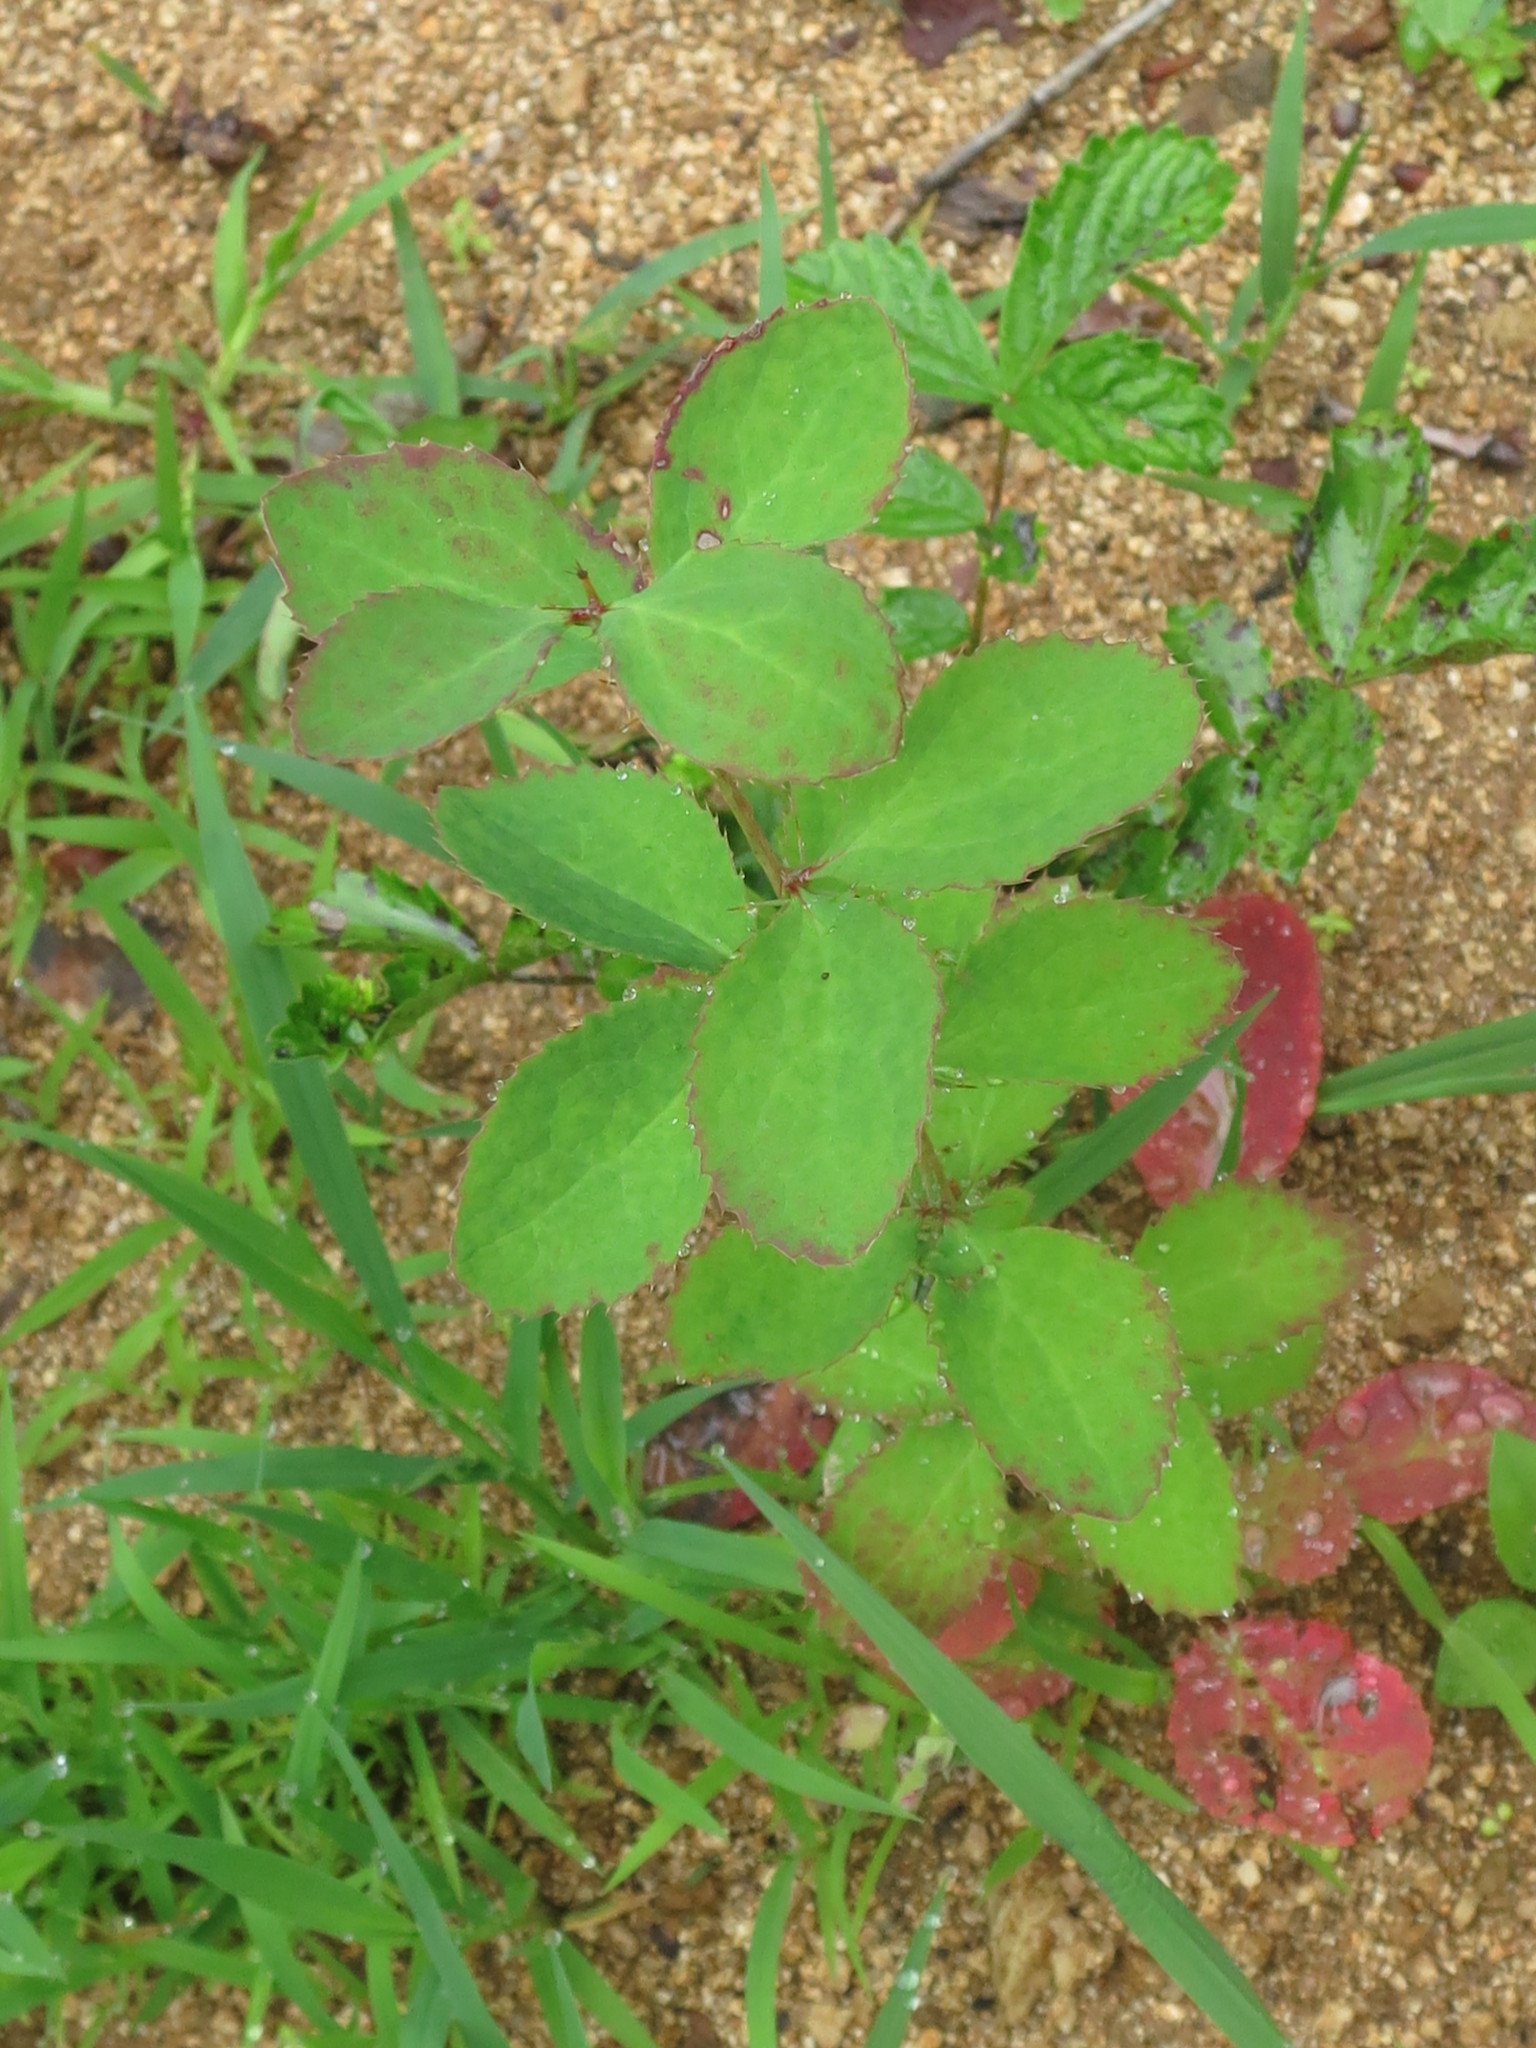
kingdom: Plantae
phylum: Tracheophyta
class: Magnoliopsida
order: Ranunculales
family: Berberidaceae
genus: Berberis
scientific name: Berberis amurensis
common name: Amur barberry
